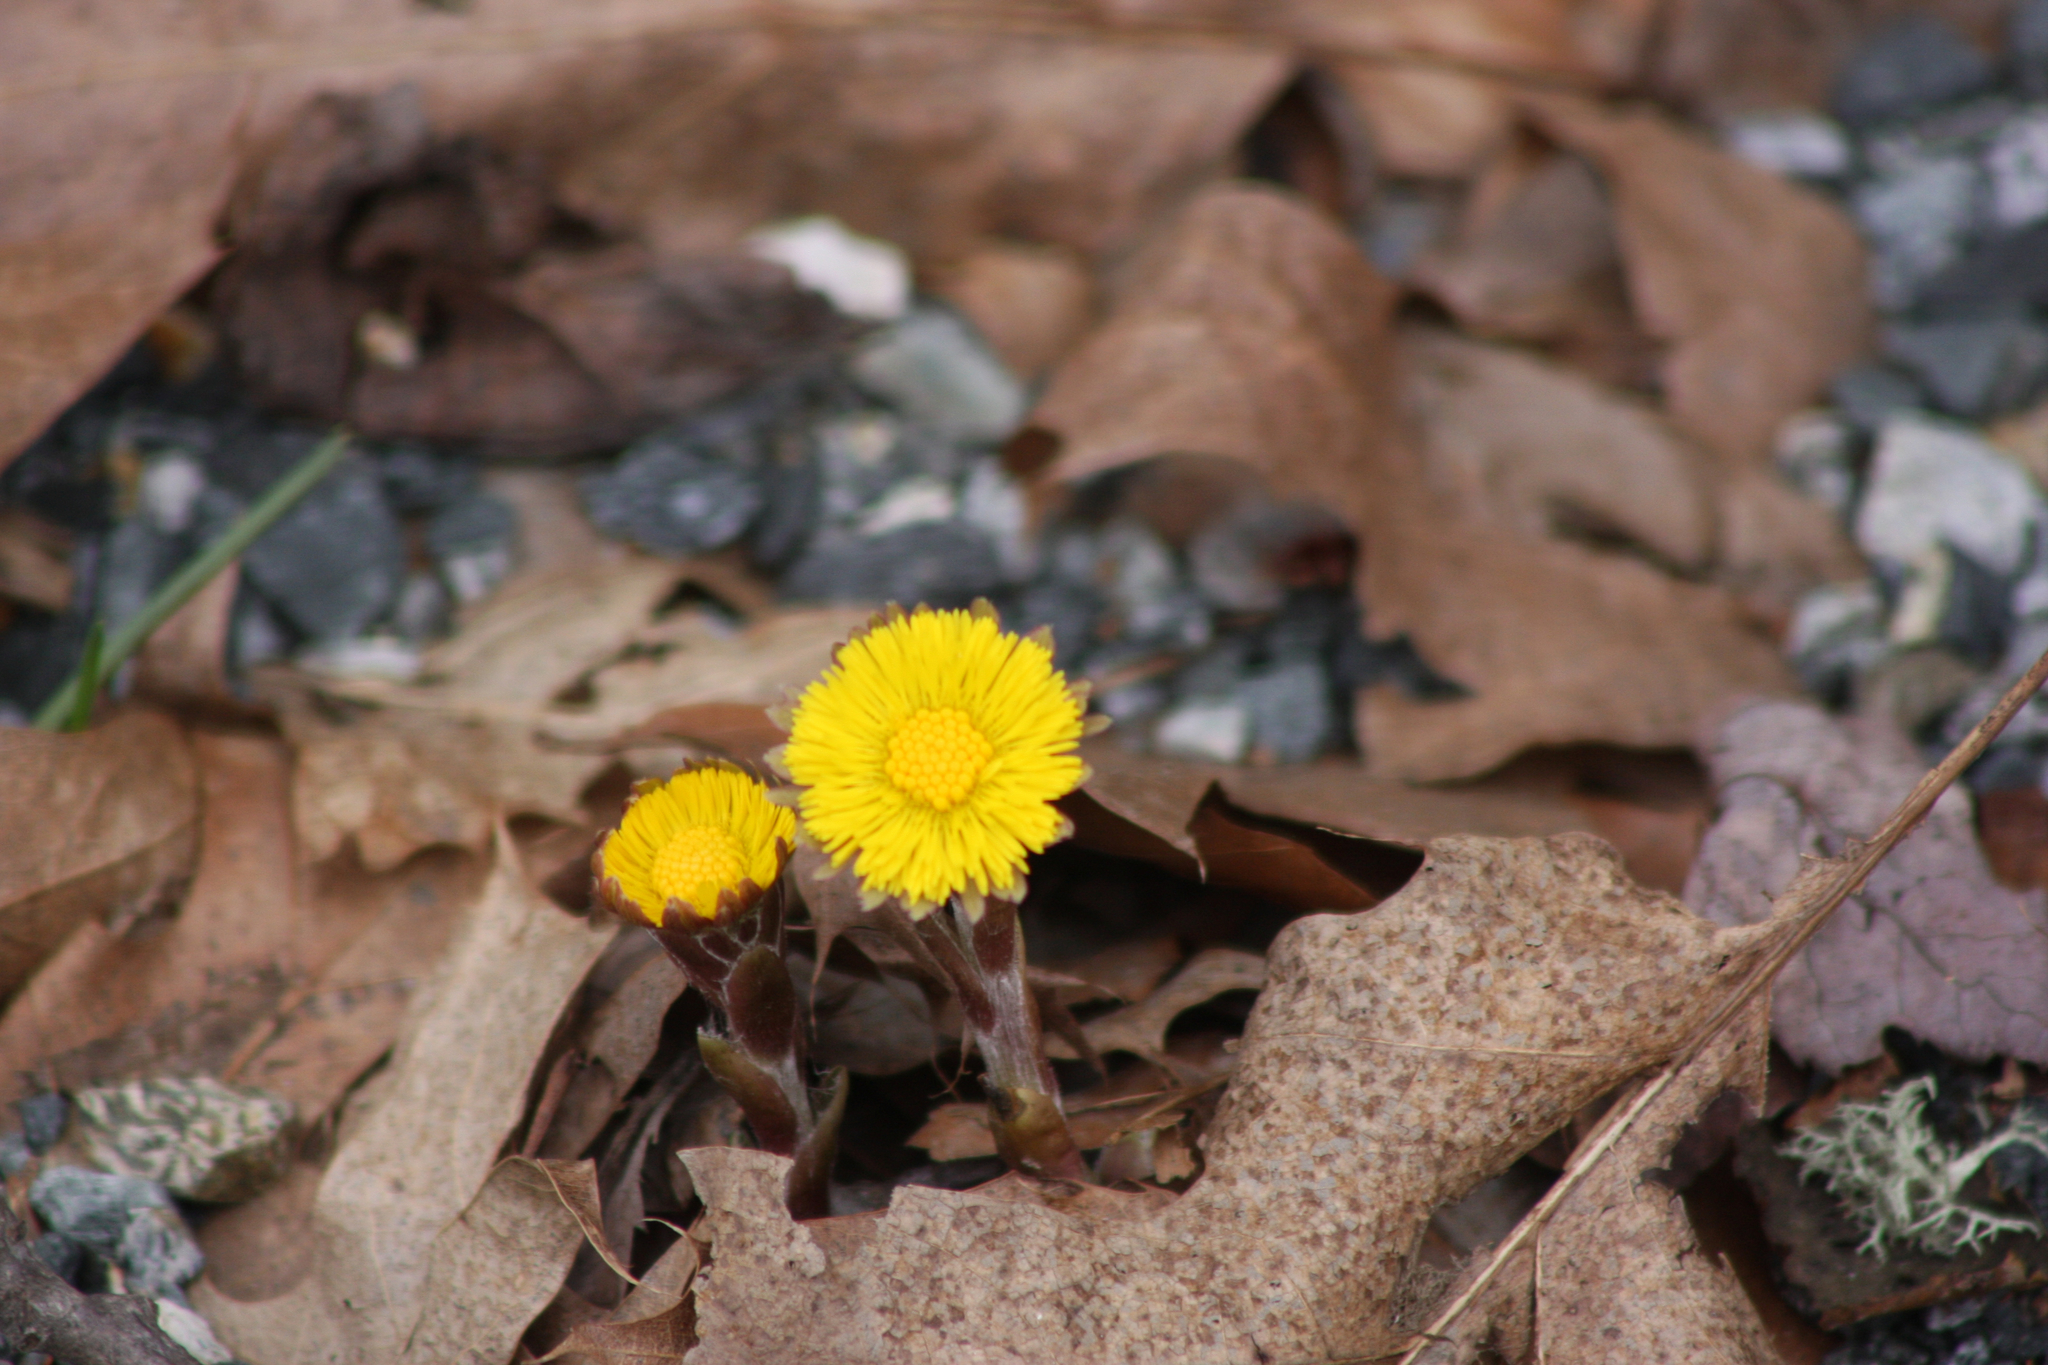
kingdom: Plantae
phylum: Tracheophyta
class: Magnoliopsida
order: Asterales
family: Asteraceae
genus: Tussilago
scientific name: Tussilago farfara
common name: Coltsfoot
